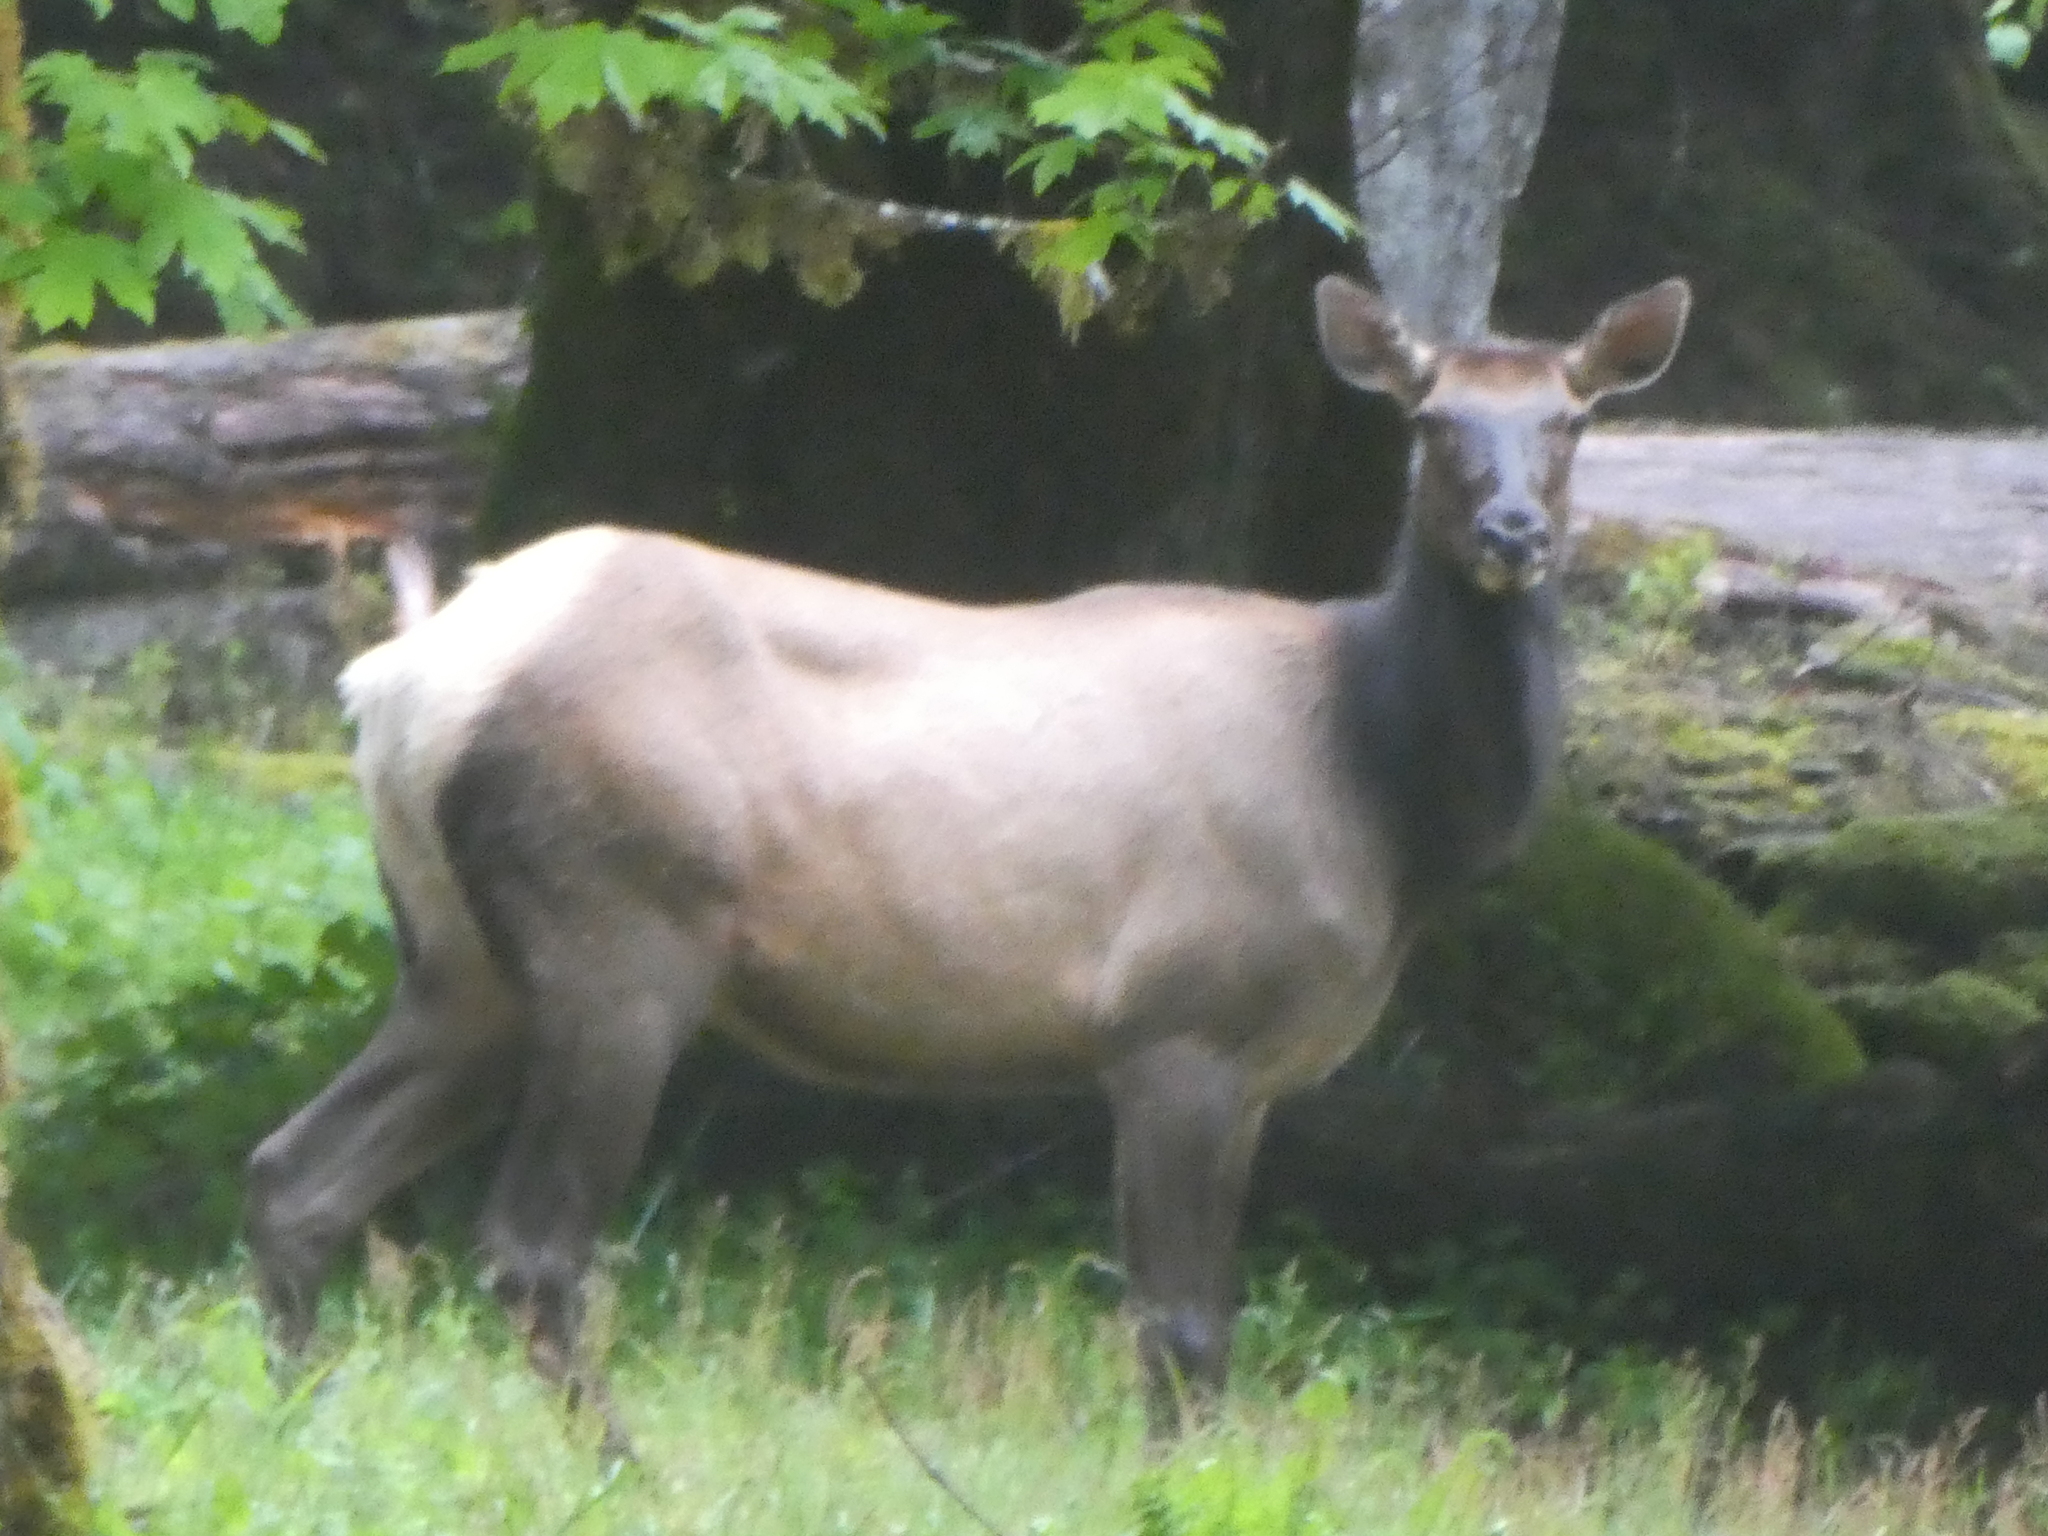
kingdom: Animalia
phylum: Chordata
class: Mammalia
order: Artiodactyla
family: Cervidae
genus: Cervus
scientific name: Cervus elaphus
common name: Red deer
